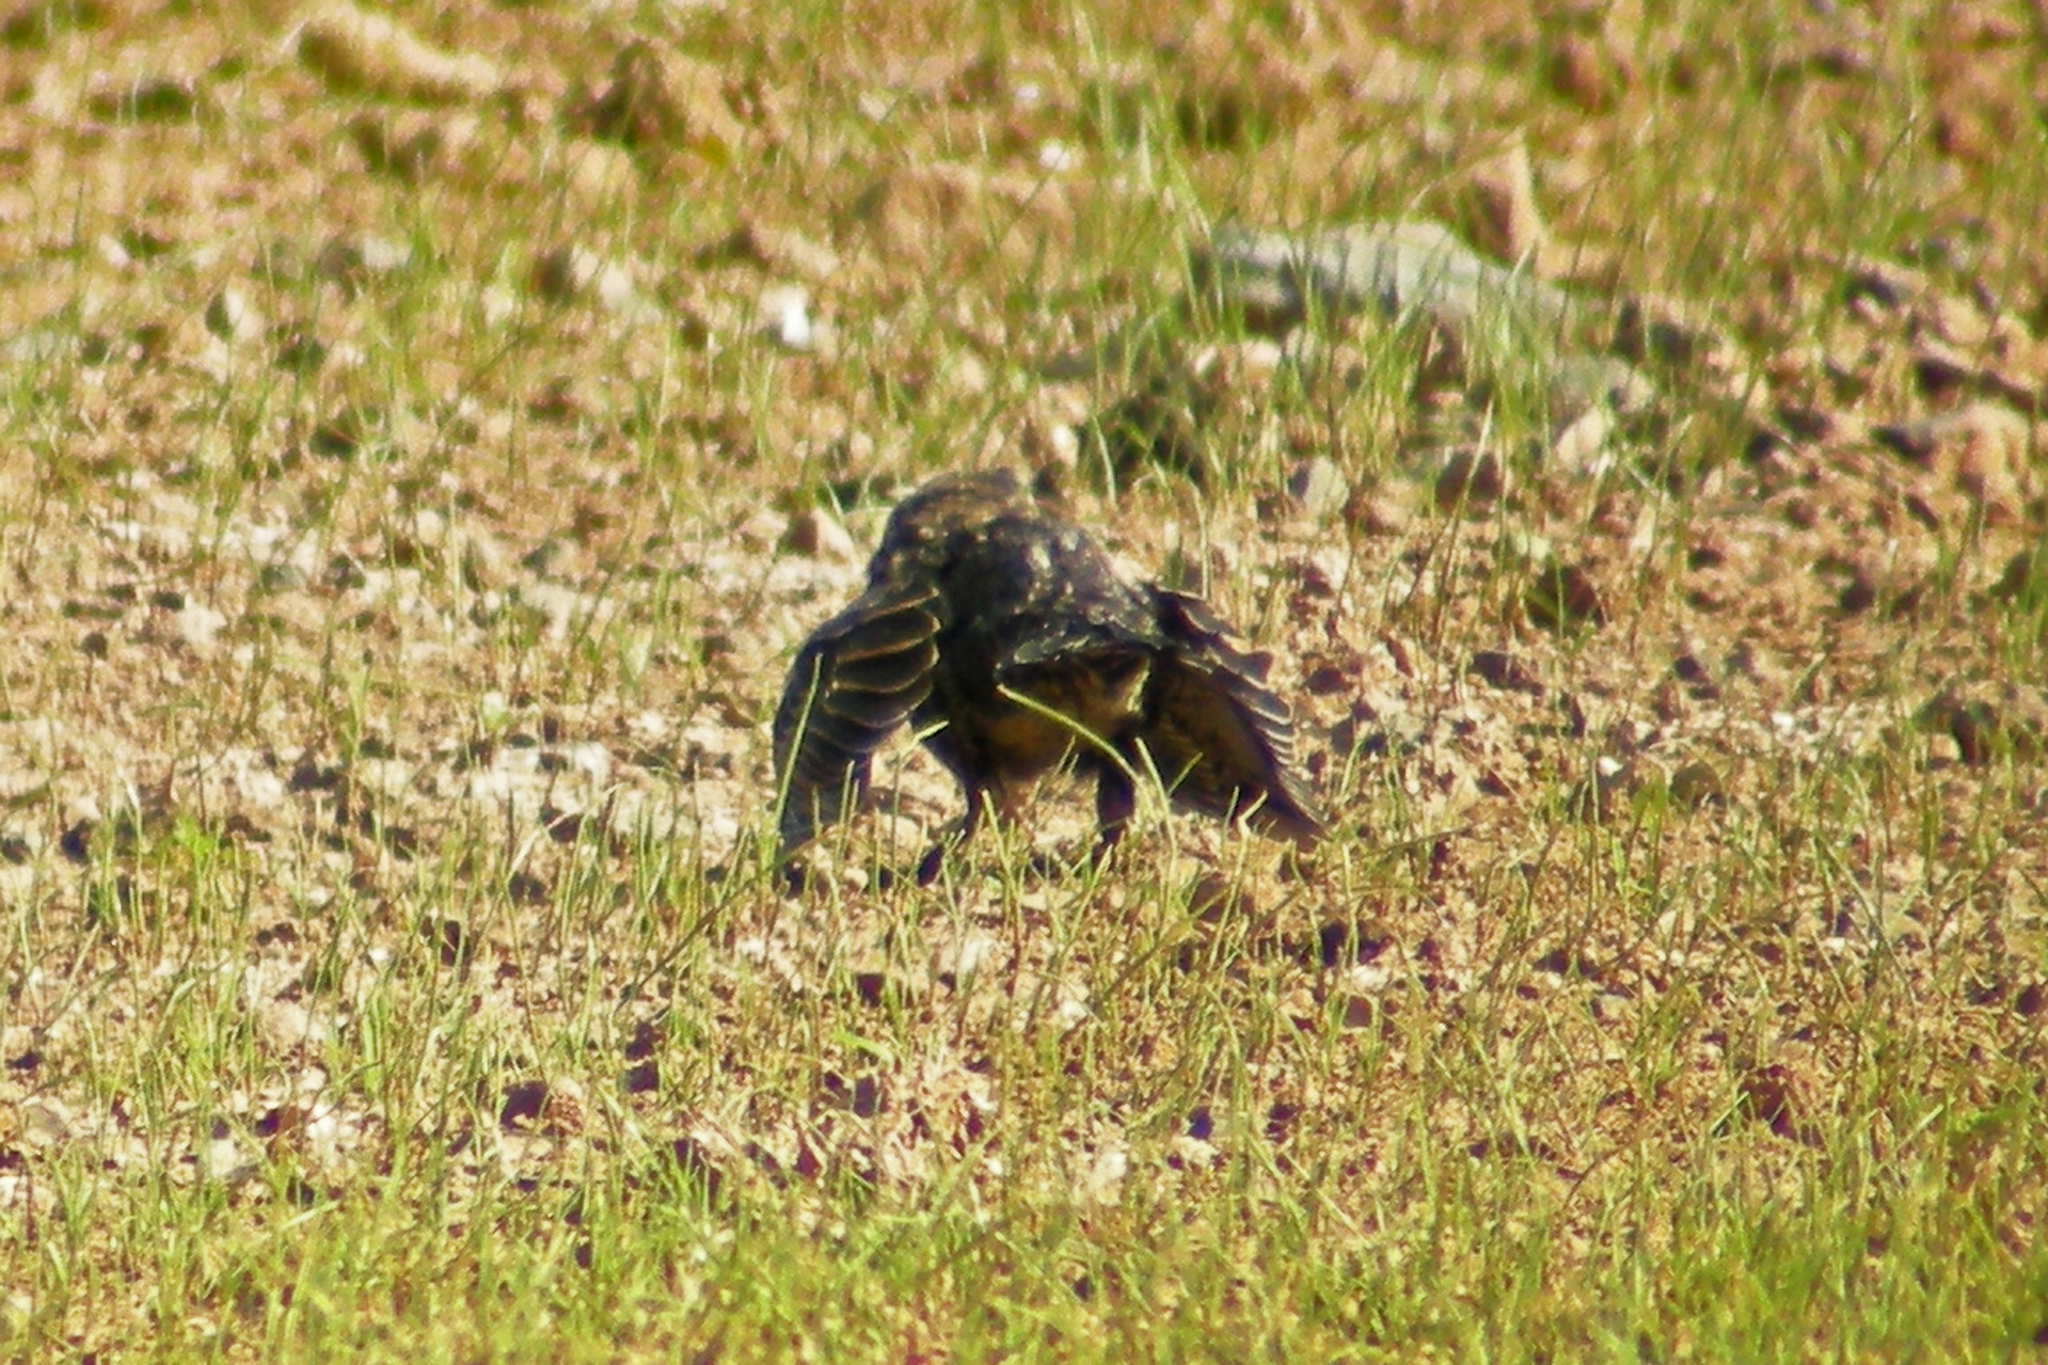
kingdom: Animalia
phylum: Chordata
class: Aves
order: Passeriformes
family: Icteridae
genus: Agelaius
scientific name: Agelaius phoeniceus
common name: Red-winged blackbird
